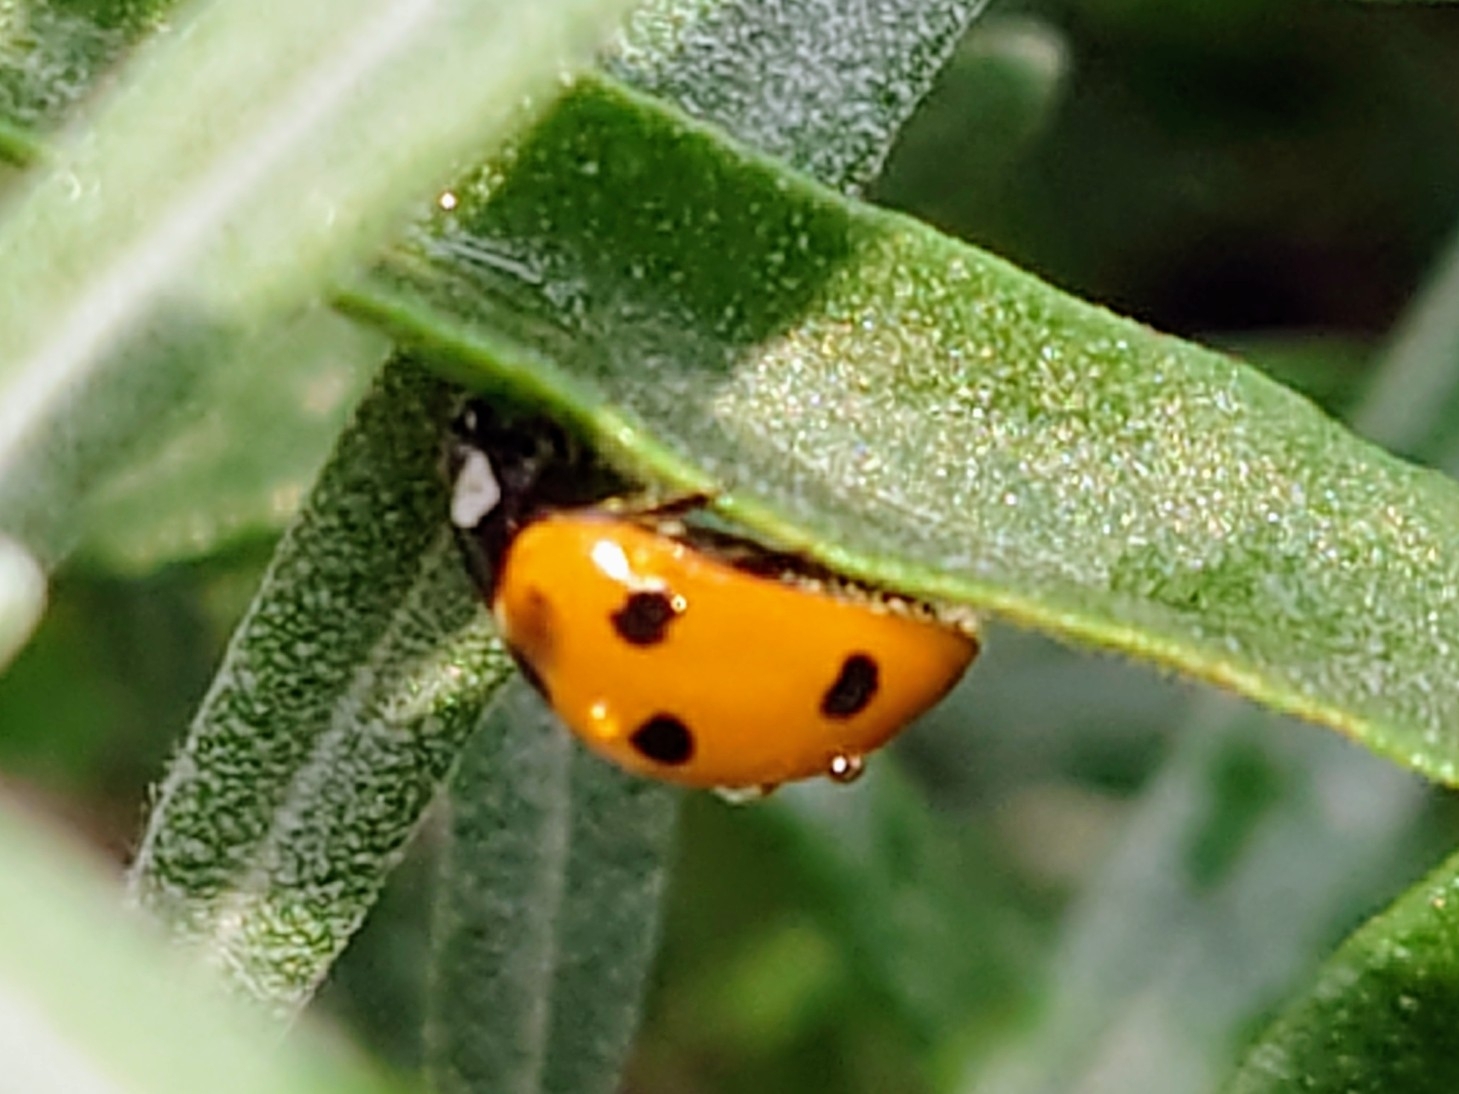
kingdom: Animalia
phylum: Arthropoda
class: Insecta
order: Coleoptera
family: Coccinellidae
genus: Coccinella
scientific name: Coccinella septempunctata
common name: Sevenspotted lady beetle
